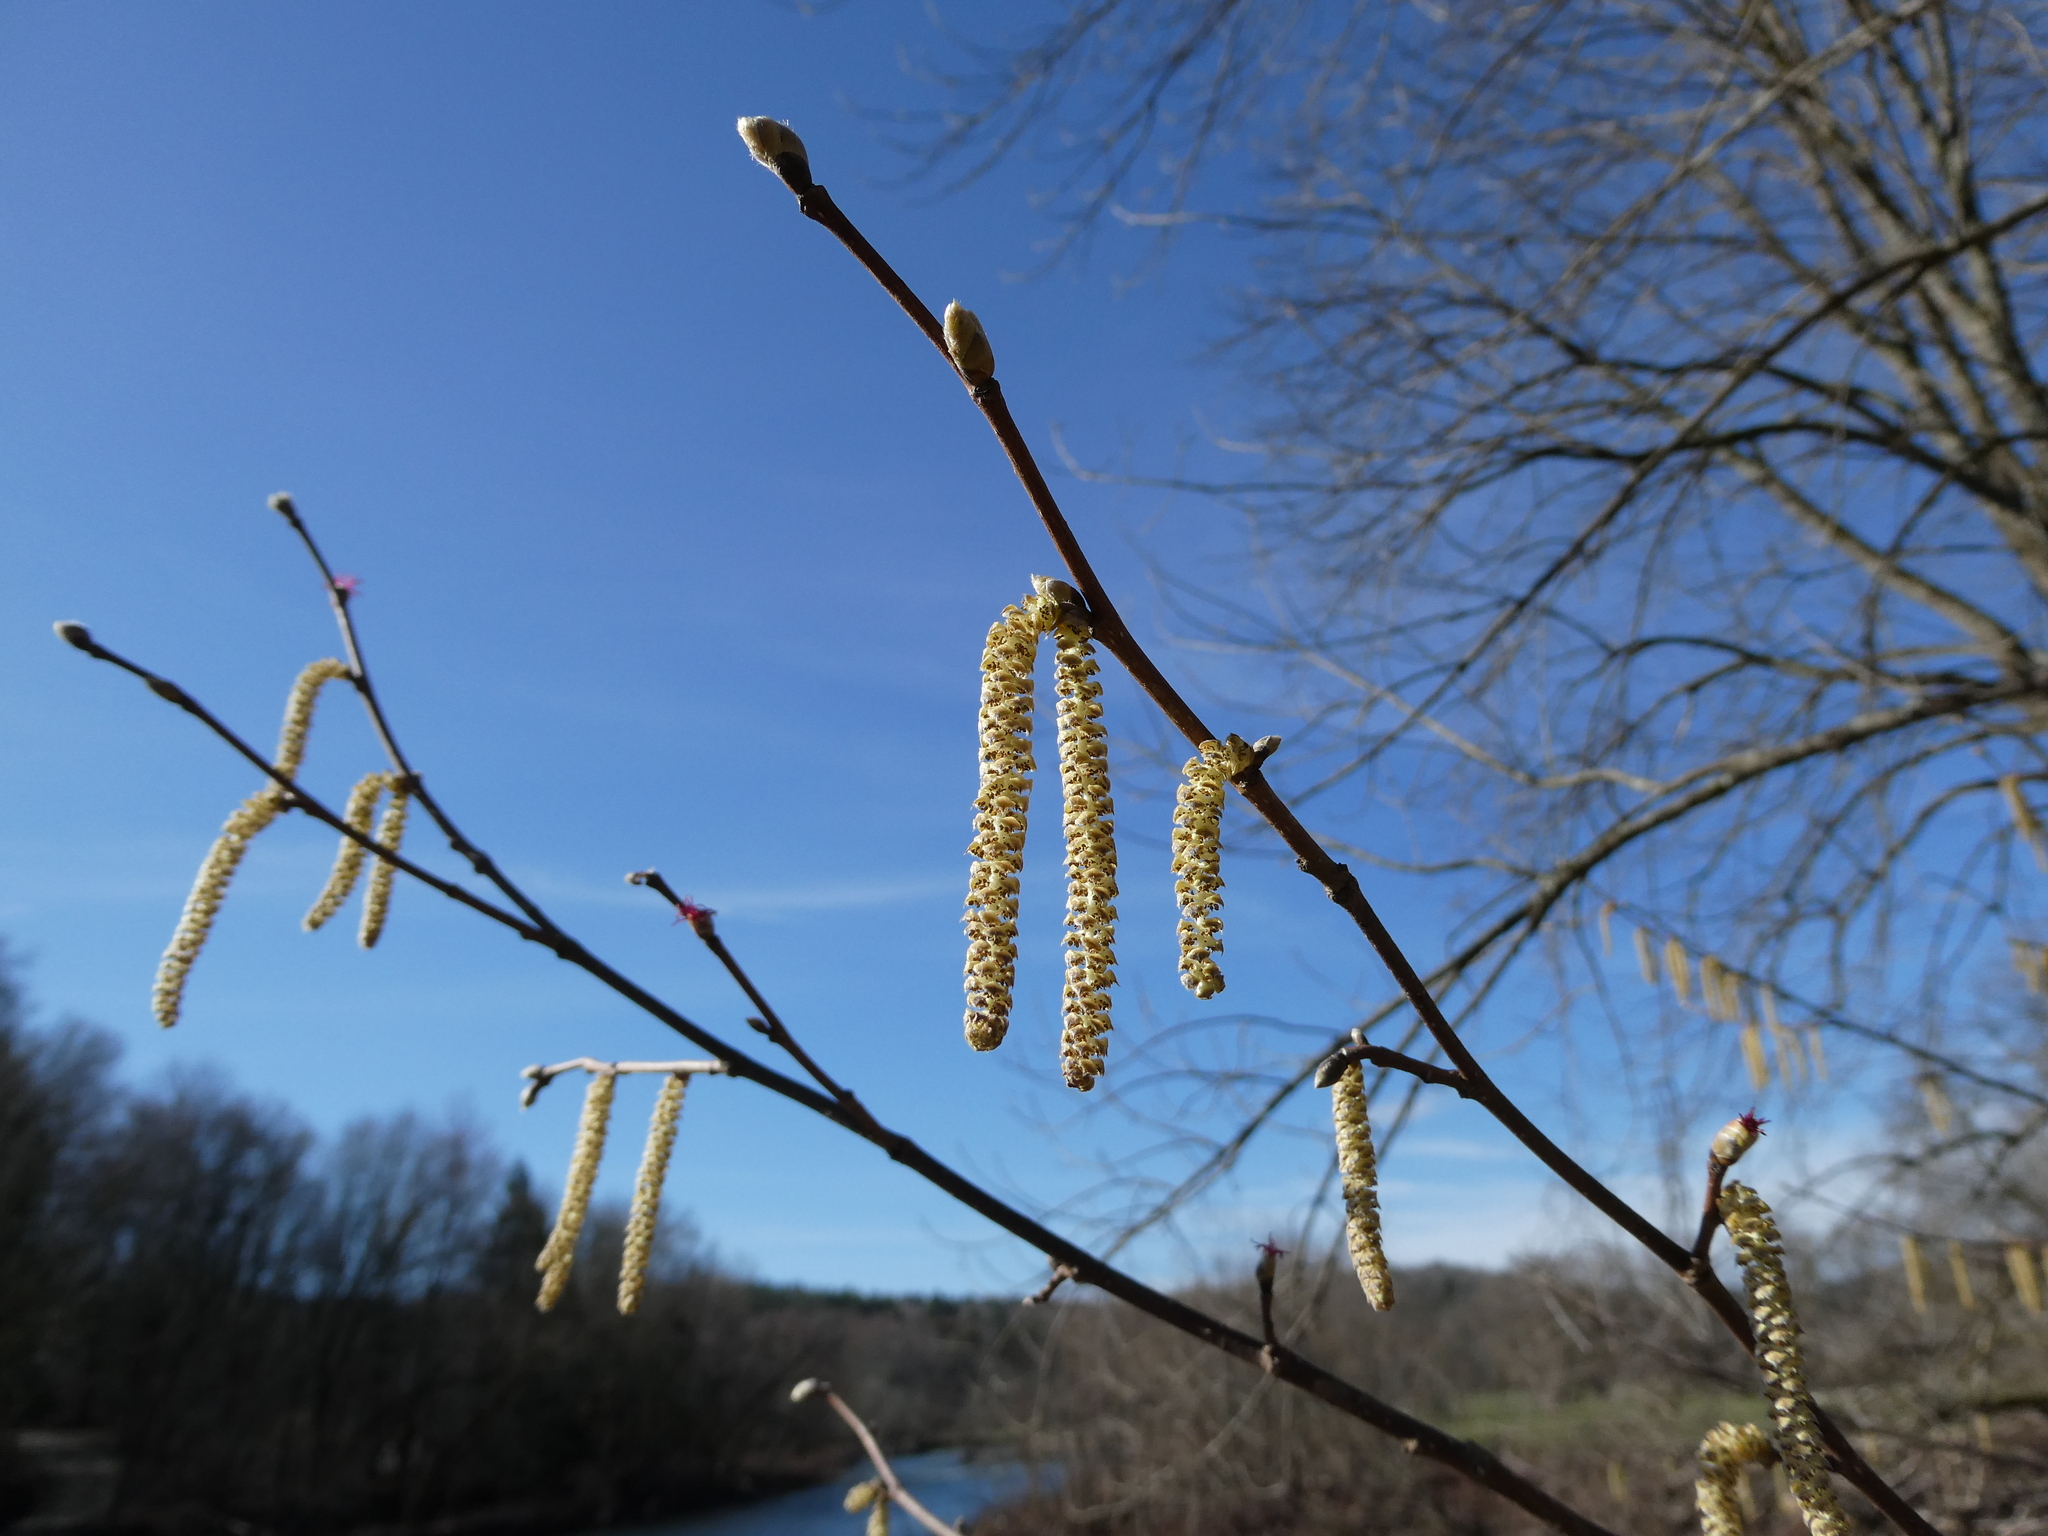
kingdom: Plantae
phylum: Tracheophyta
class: Magnoliopsida
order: Fagales
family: Betulaceae
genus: Corylus
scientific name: Corylus cornuta
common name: Beaked hazel
